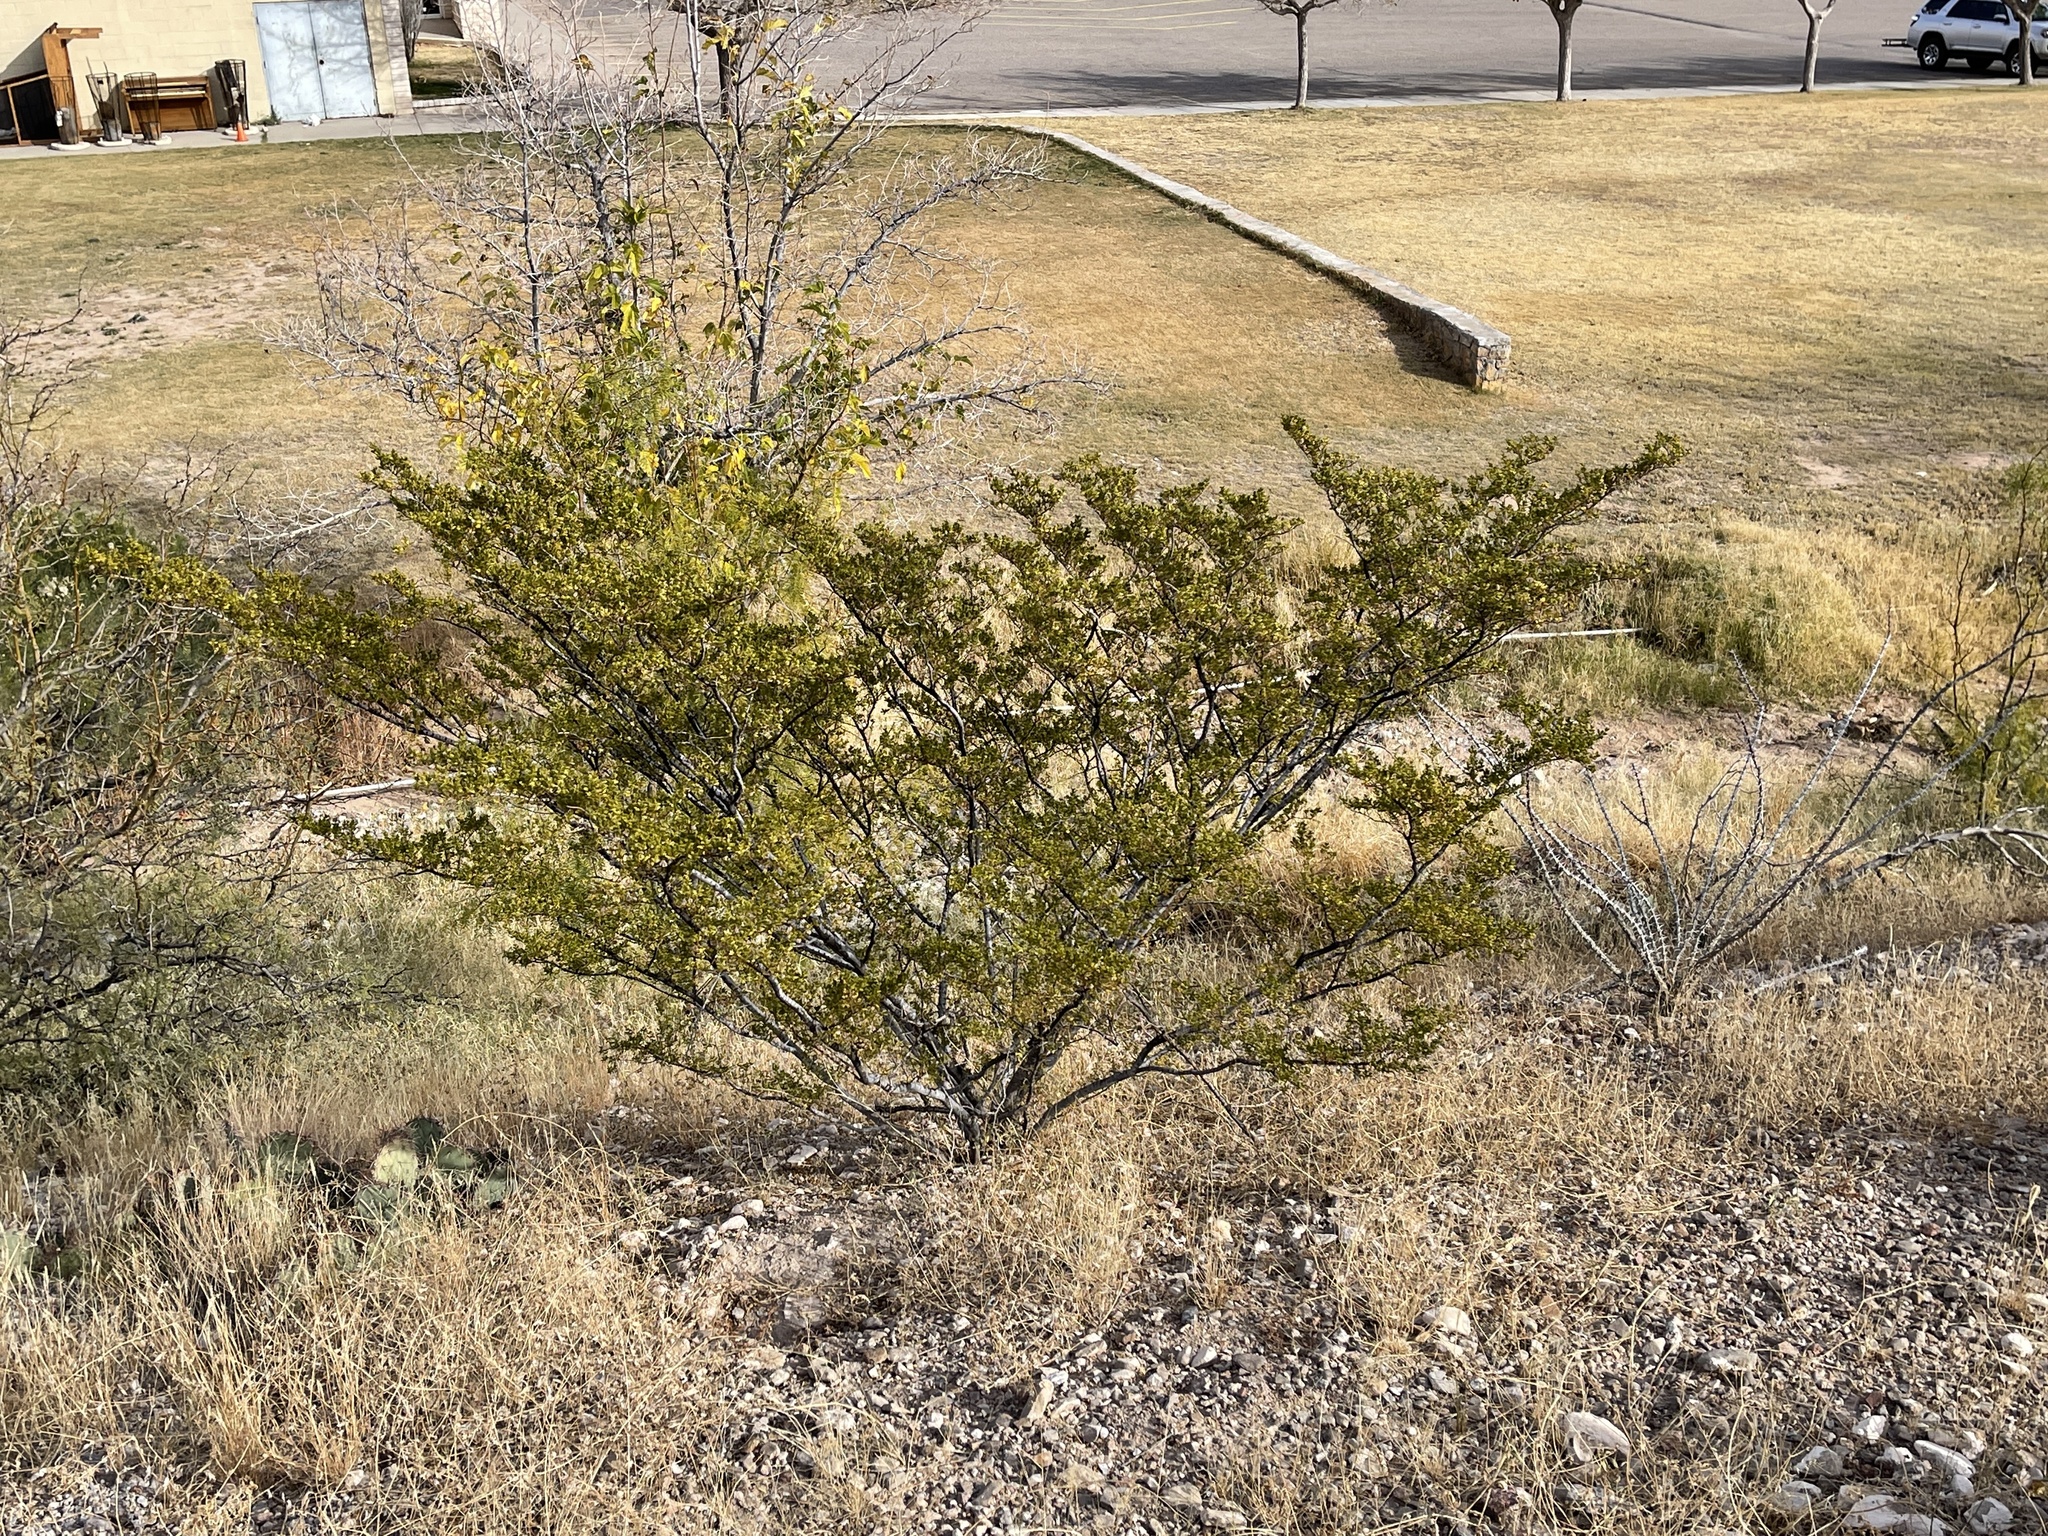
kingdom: Plantae
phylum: Tracheophyta
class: Magnoliopsida
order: Zygophyllales
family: Zygophyllaceae
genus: Larrea
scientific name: Larrea tridentata
